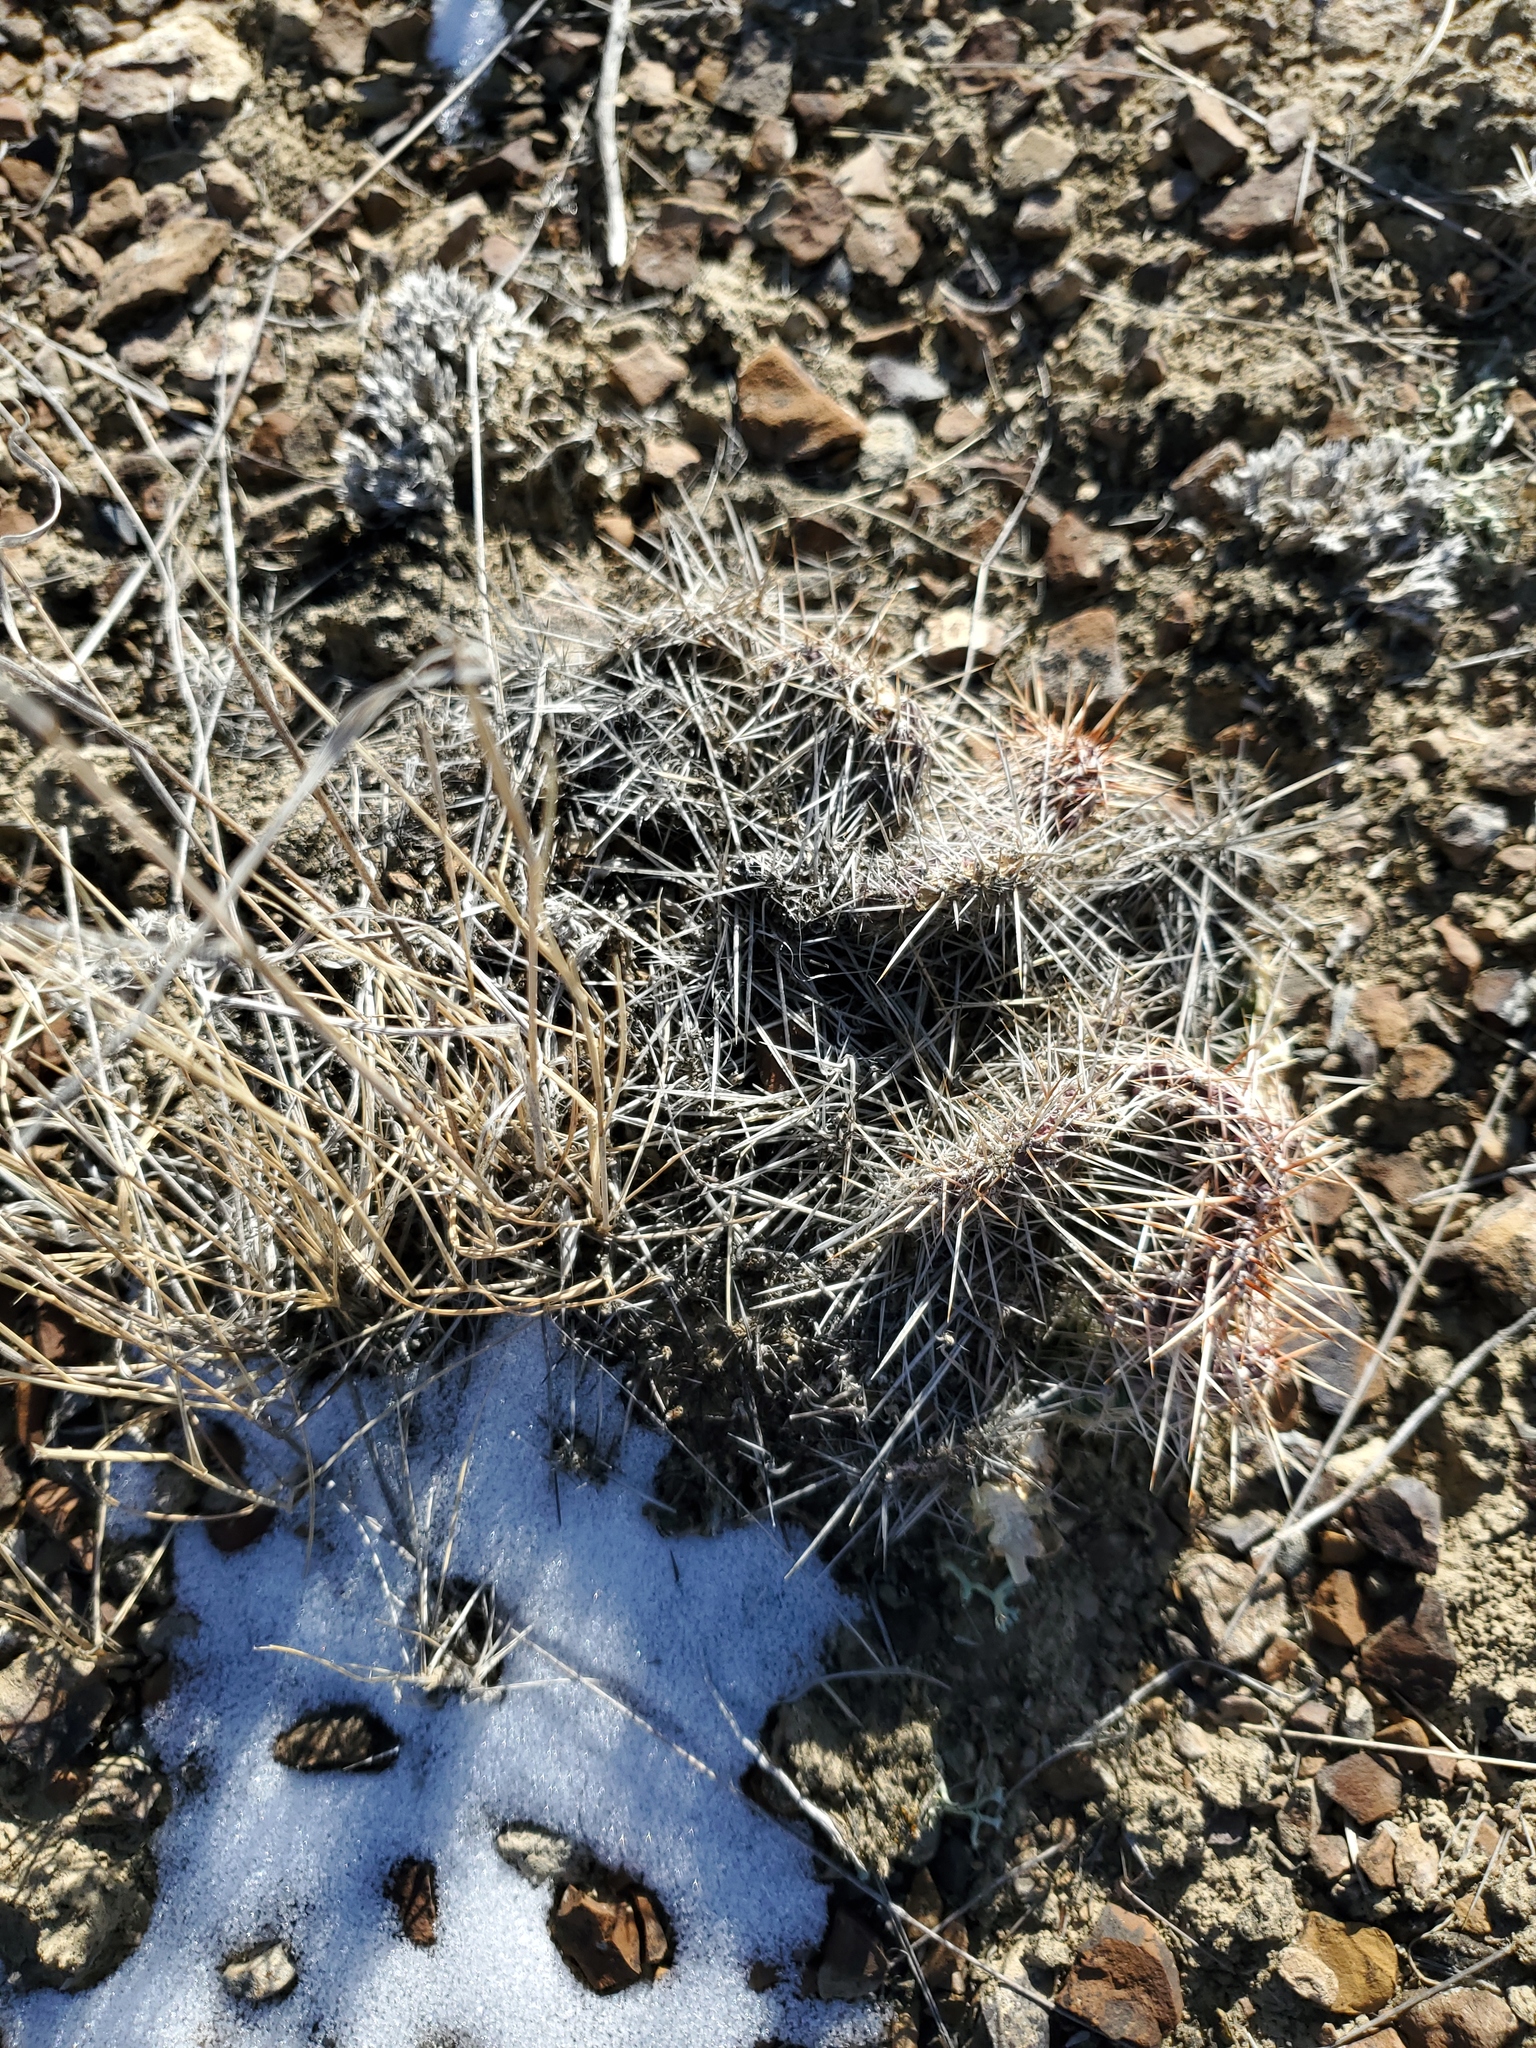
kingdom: Plantae
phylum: Tracheophyta
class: Magnoliopsida
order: Caryophyllales
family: Cactaceae
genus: Opuntia
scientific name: Opuntia polyacantha
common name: Plains prickly-pear
